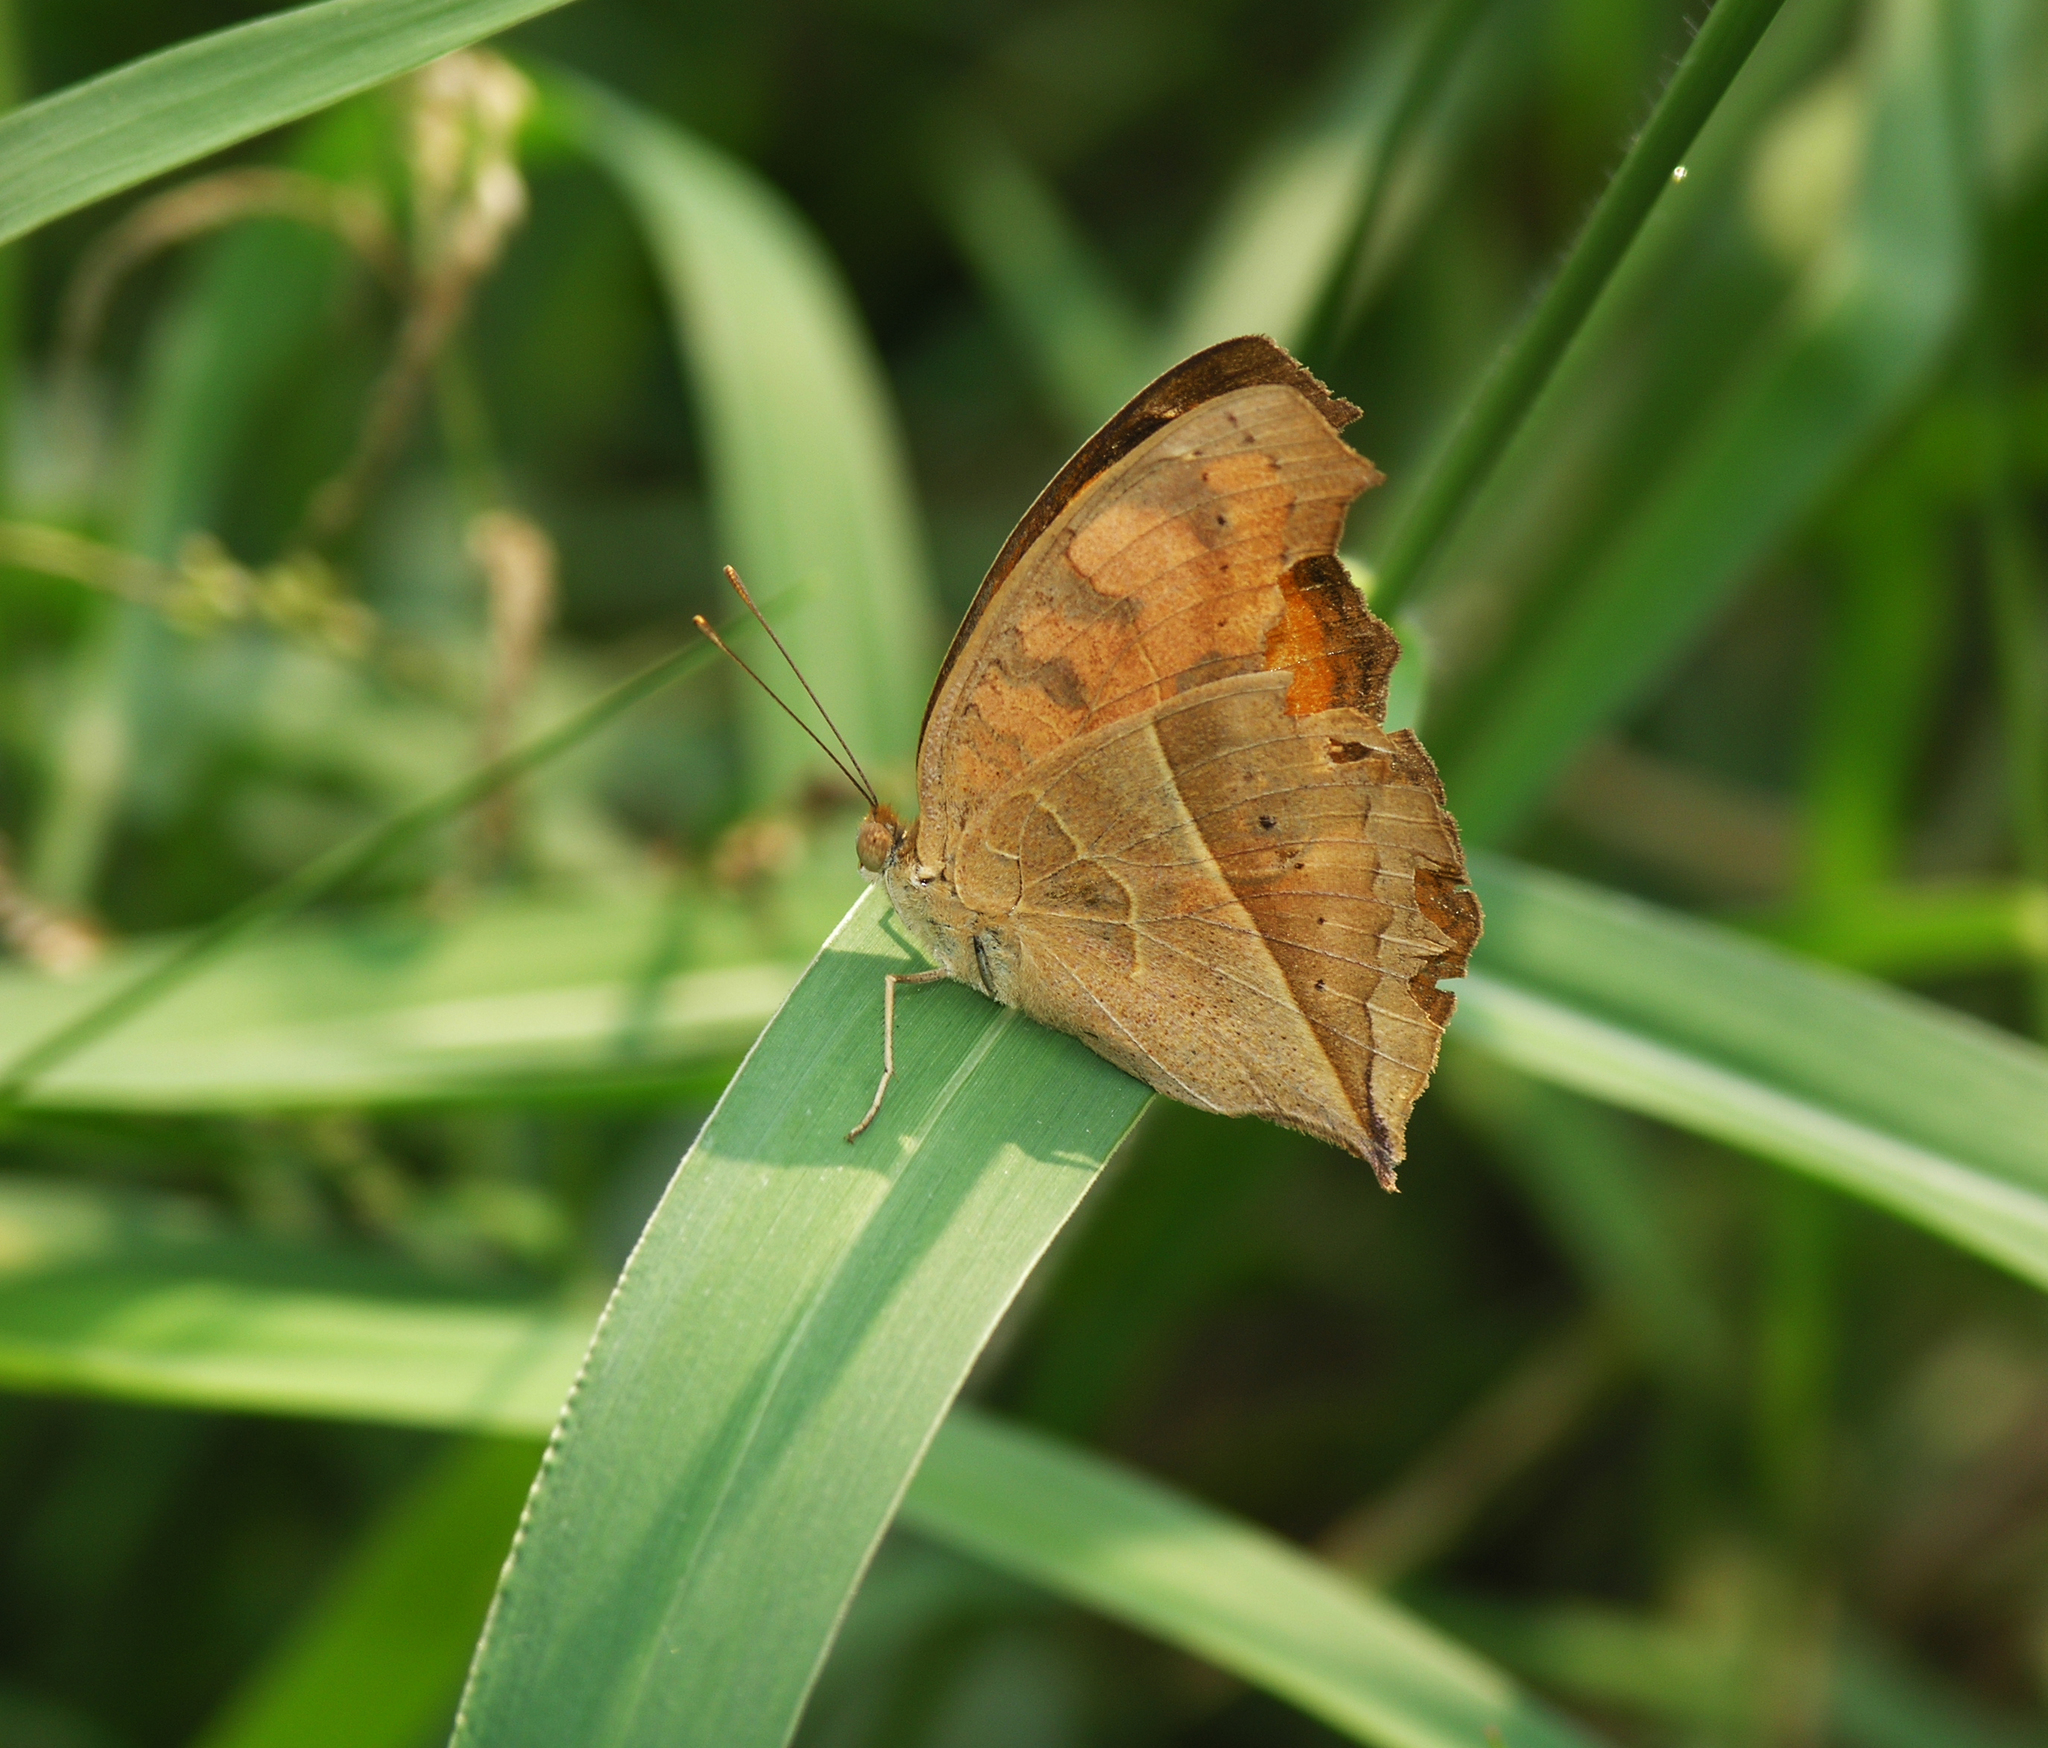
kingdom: Animalia
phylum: Arthropoda
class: Insecta
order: Lepidoptera
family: Nymphalidae
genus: Junonia
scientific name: Junonia almana
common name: Peacock pansy
